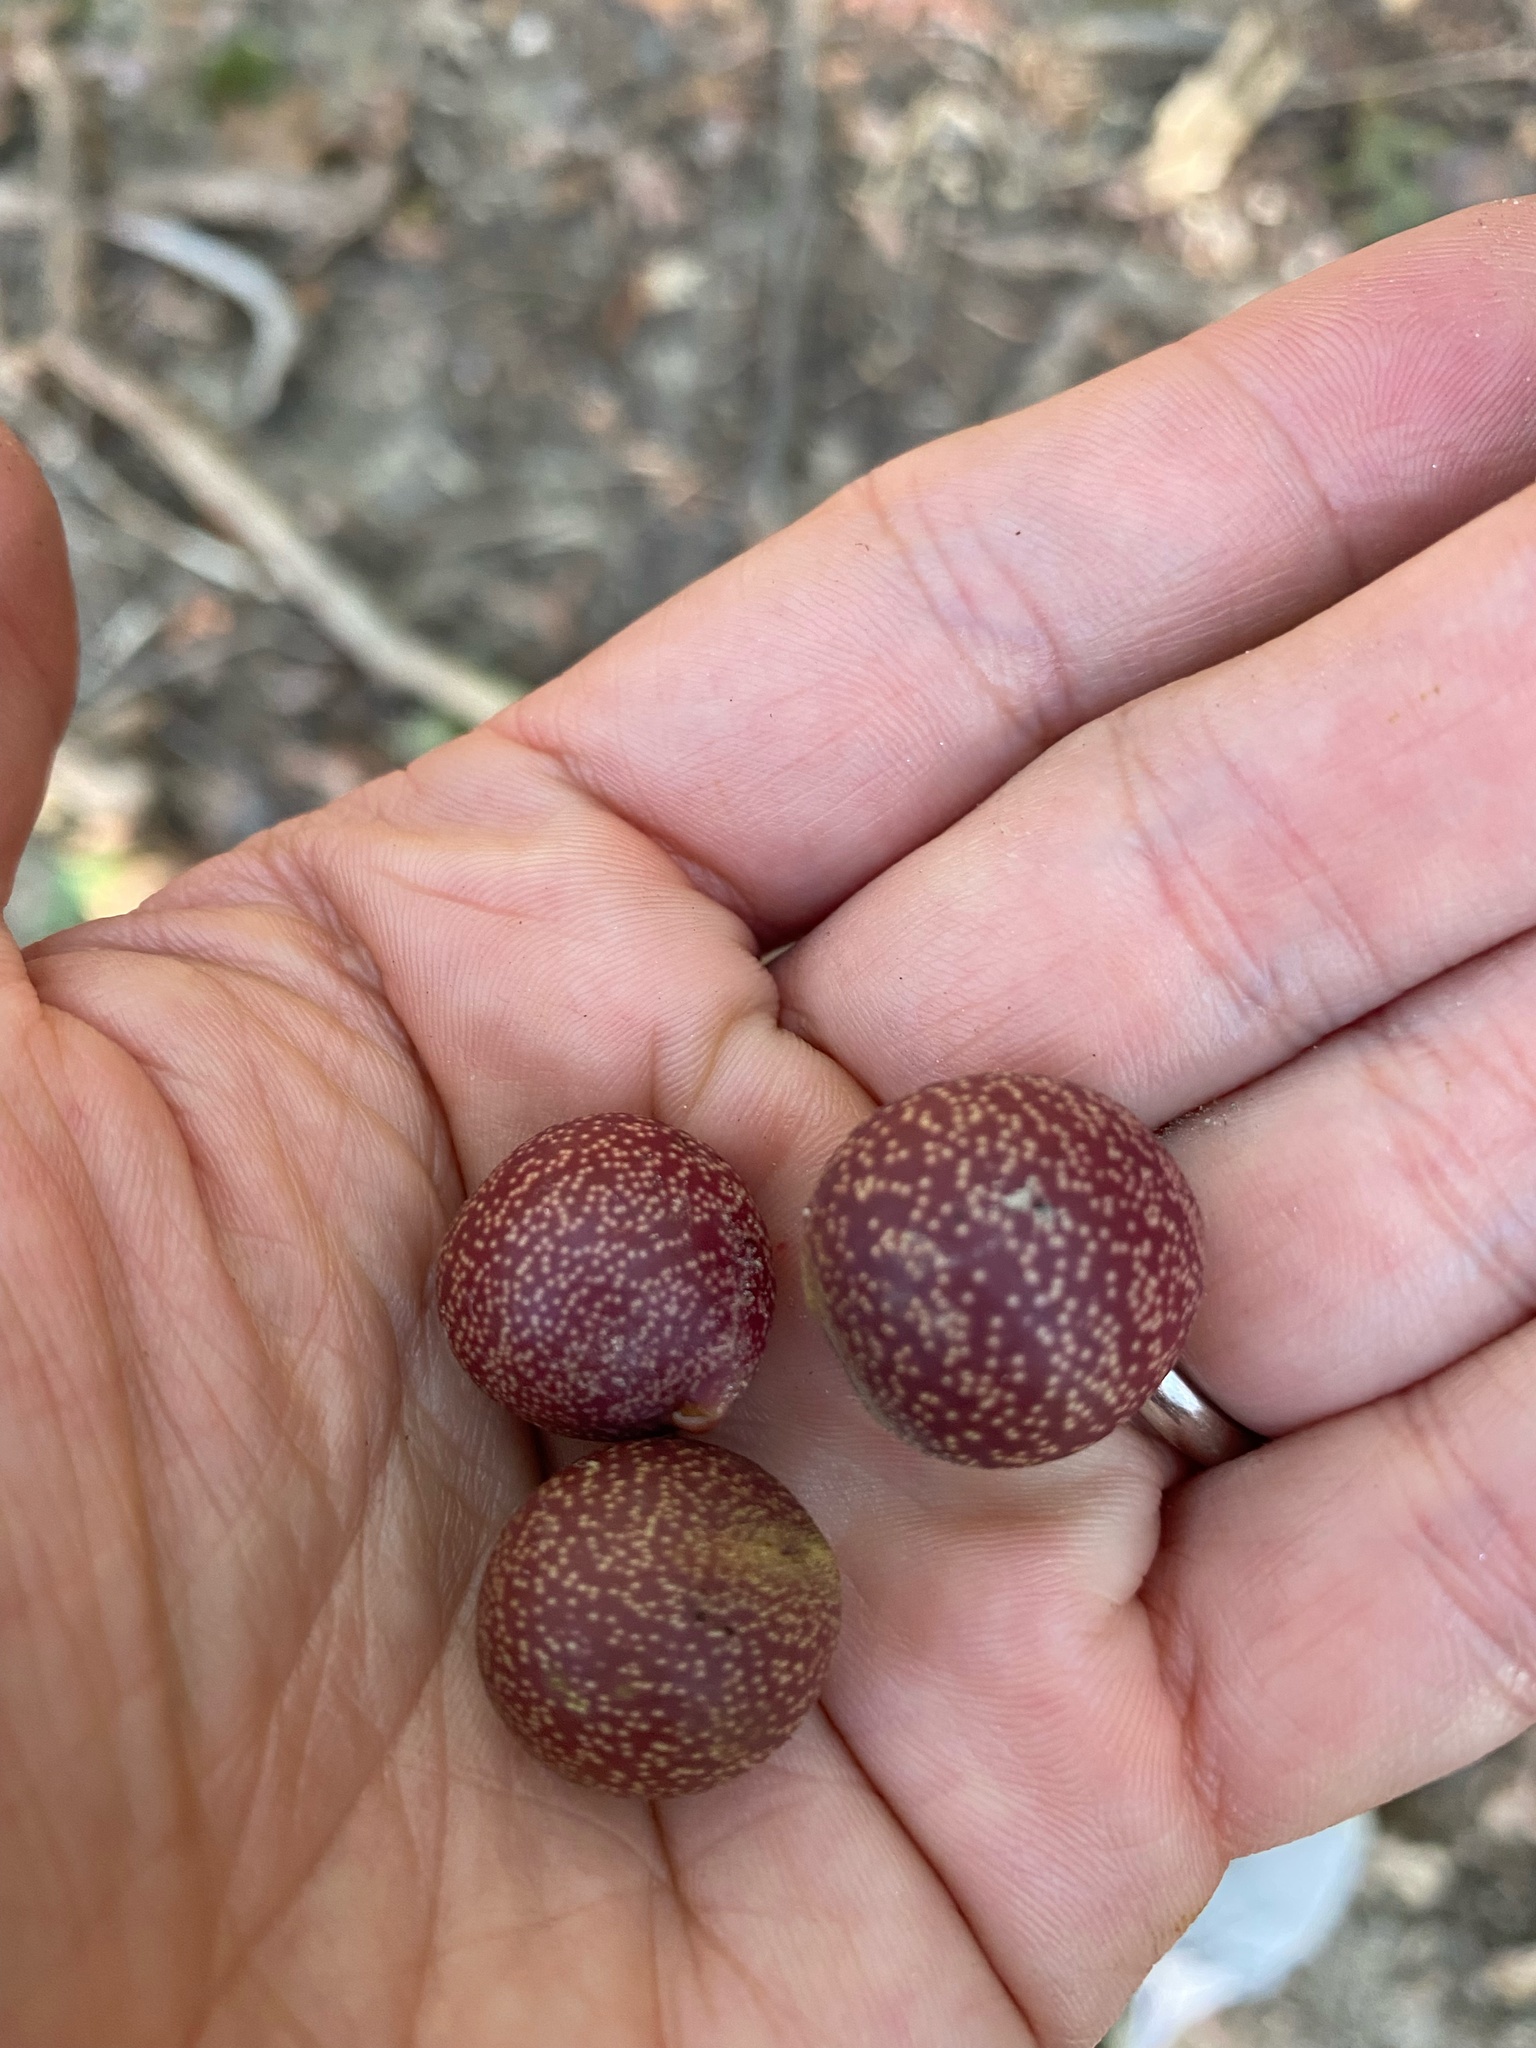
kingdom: Animalia
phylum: Arthropoda
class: Insecta
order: Hymenoptera
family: Cynipidae
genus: Kokkocynips
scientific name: Kokkocynips imbricariae
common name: Banded bullet gall wasp
